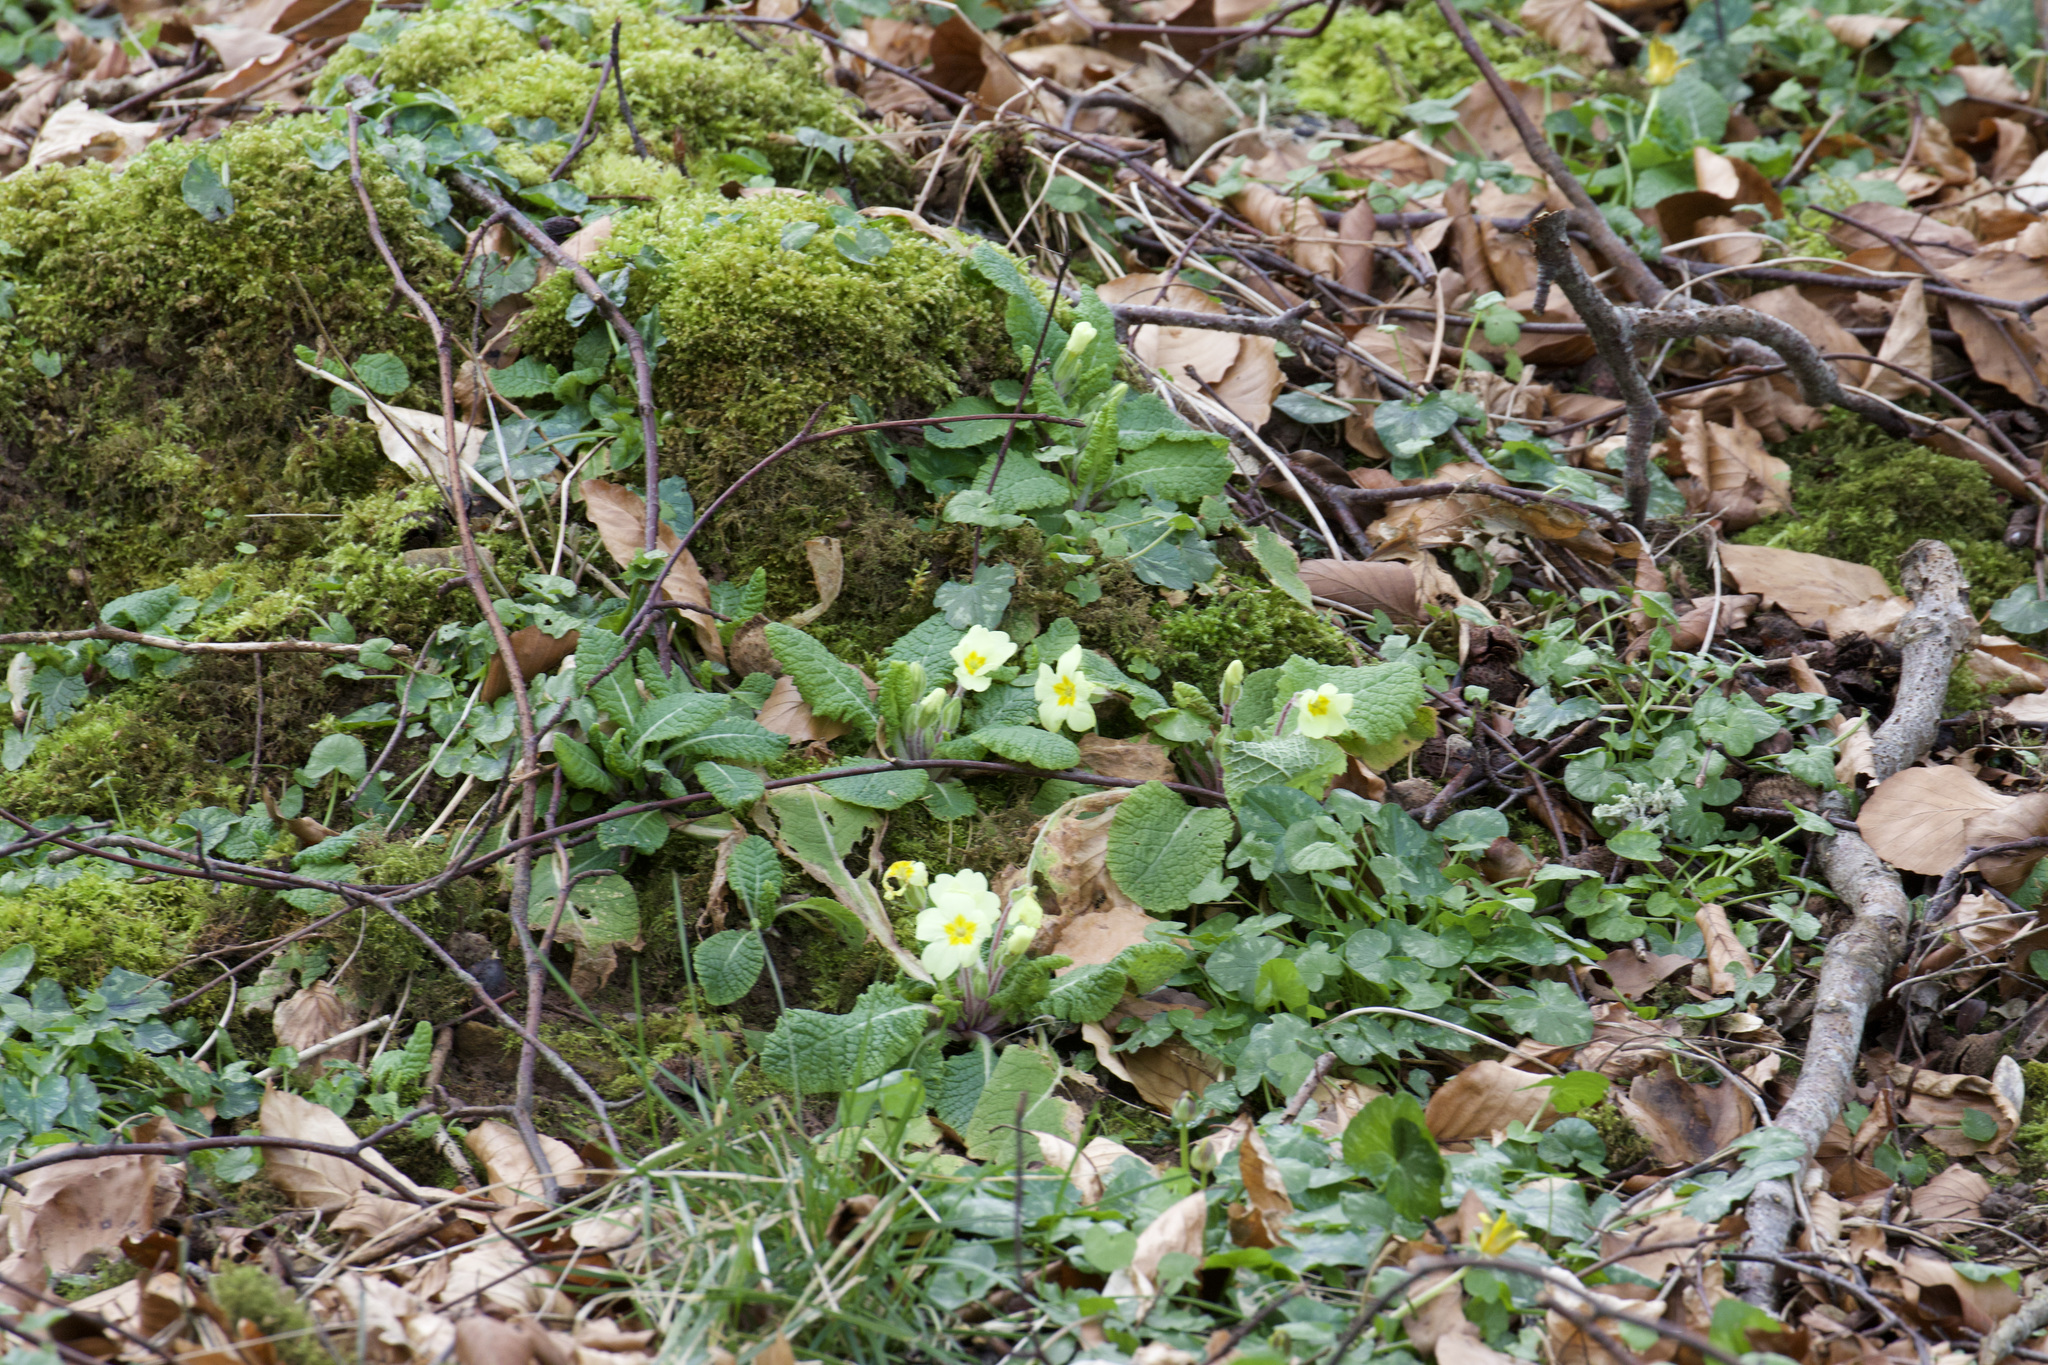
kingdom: Plantae
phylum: Tracheophyta
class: Magnoliopsida
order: Ericales
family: Primulaceae
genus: Primula
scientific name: Primula vulgaris
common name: Primrose
